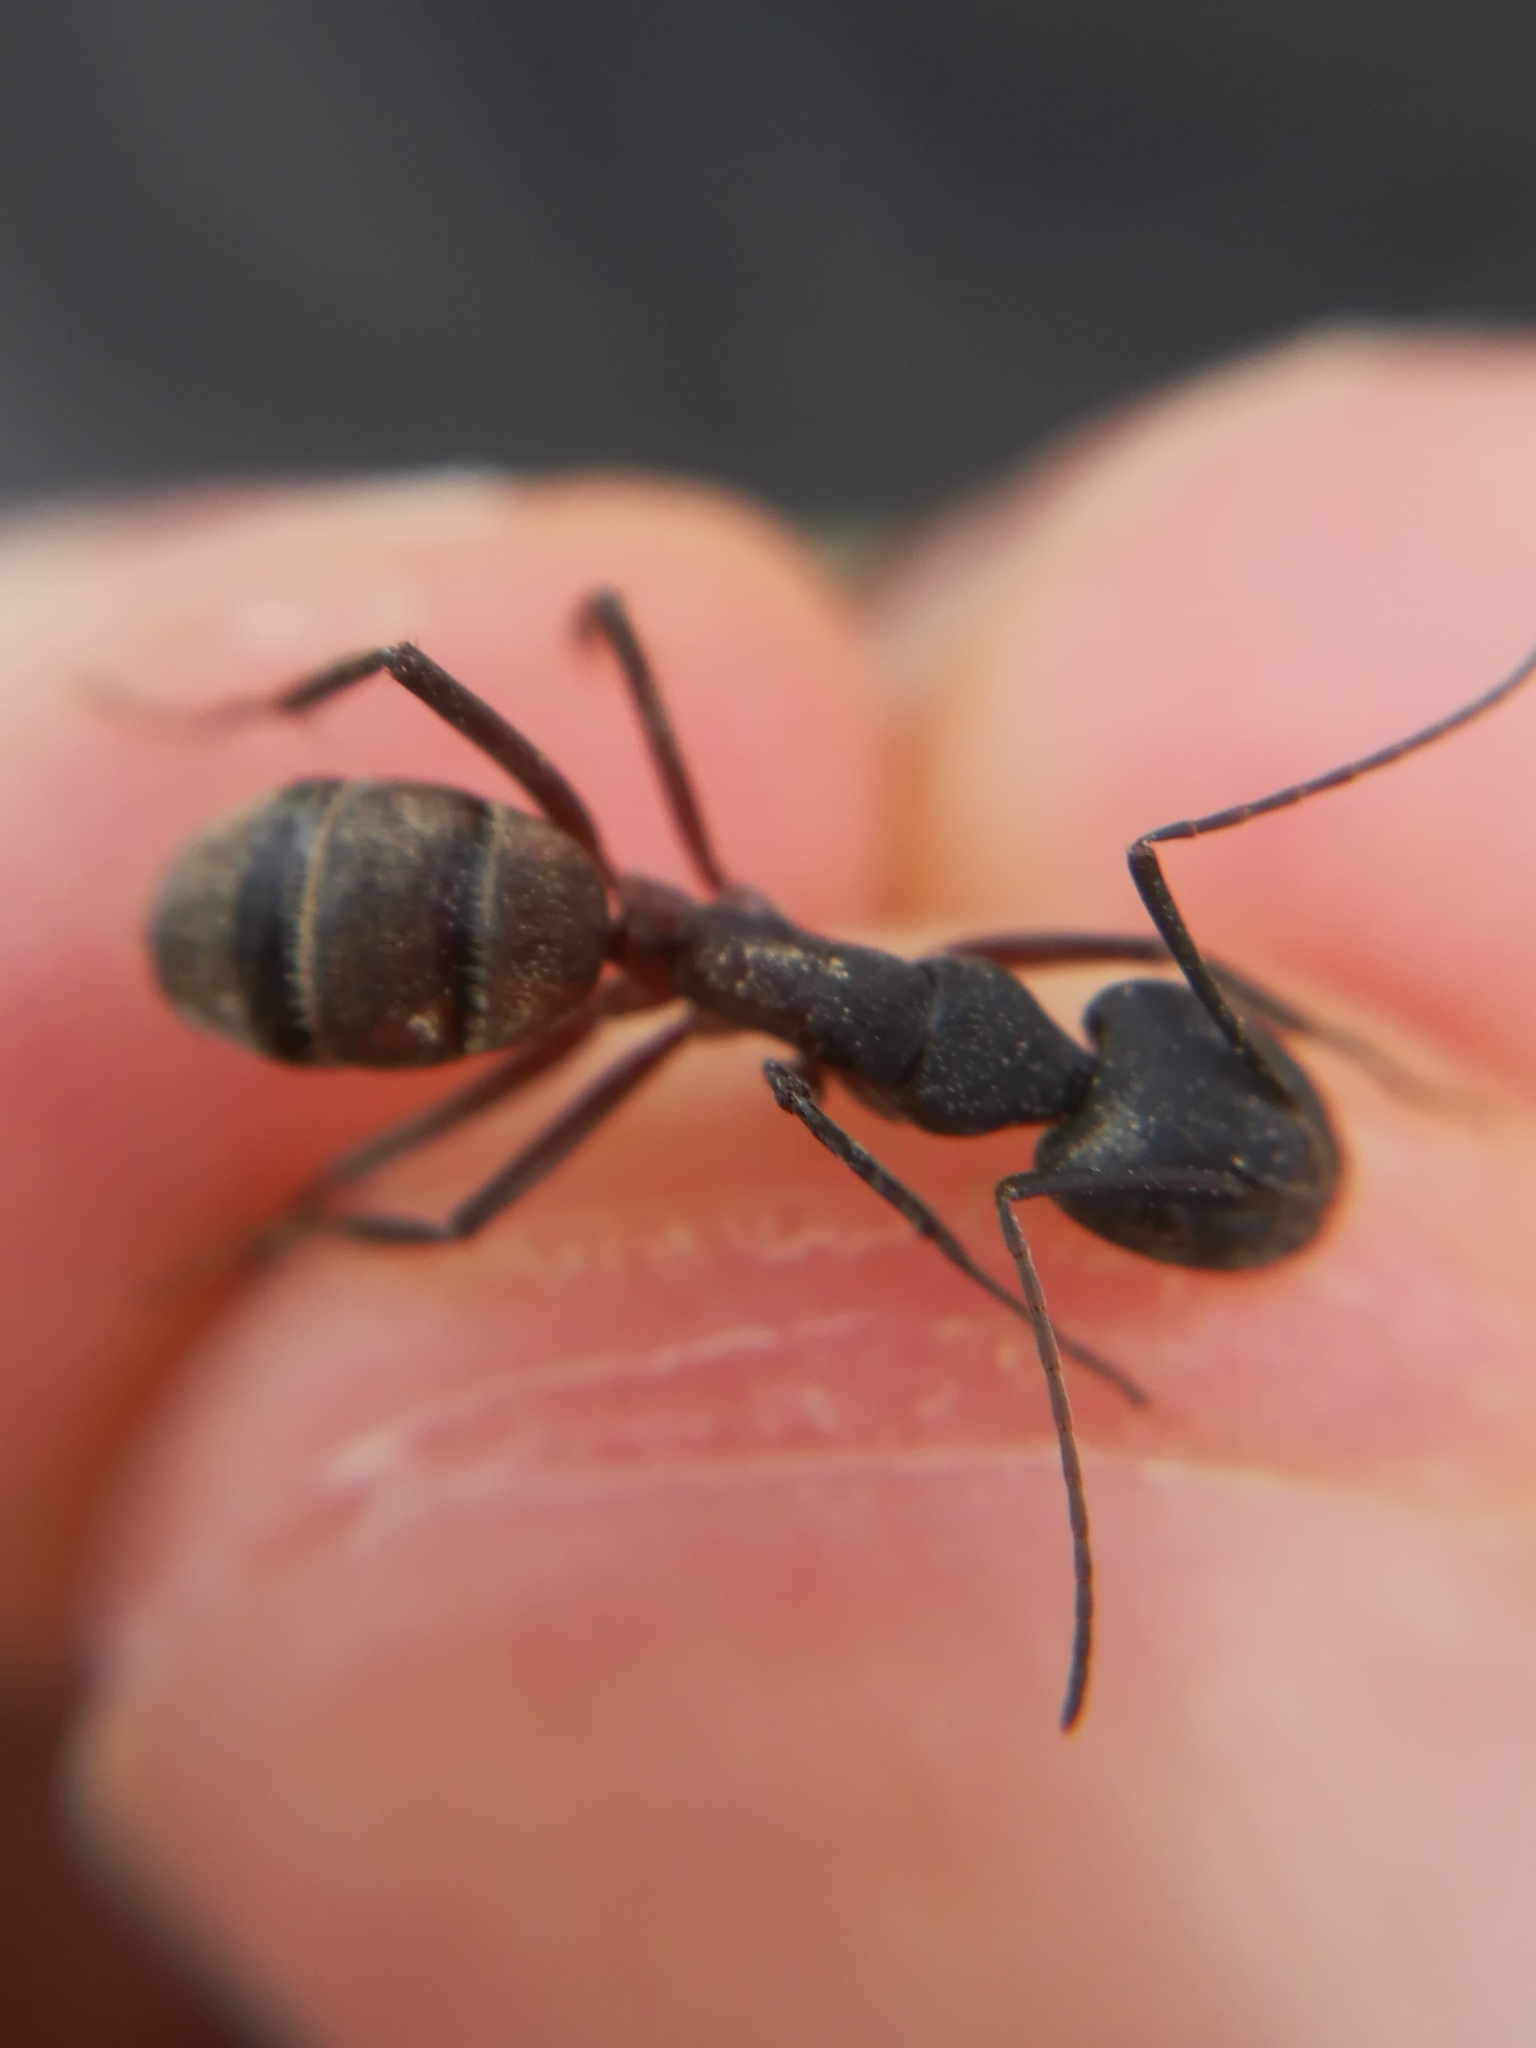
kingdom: Animalia
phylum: Arthropoda
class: Insecta
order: Hymenoptera
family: Formicidae
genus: Camponotus
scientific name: Camponotus cruentatus
